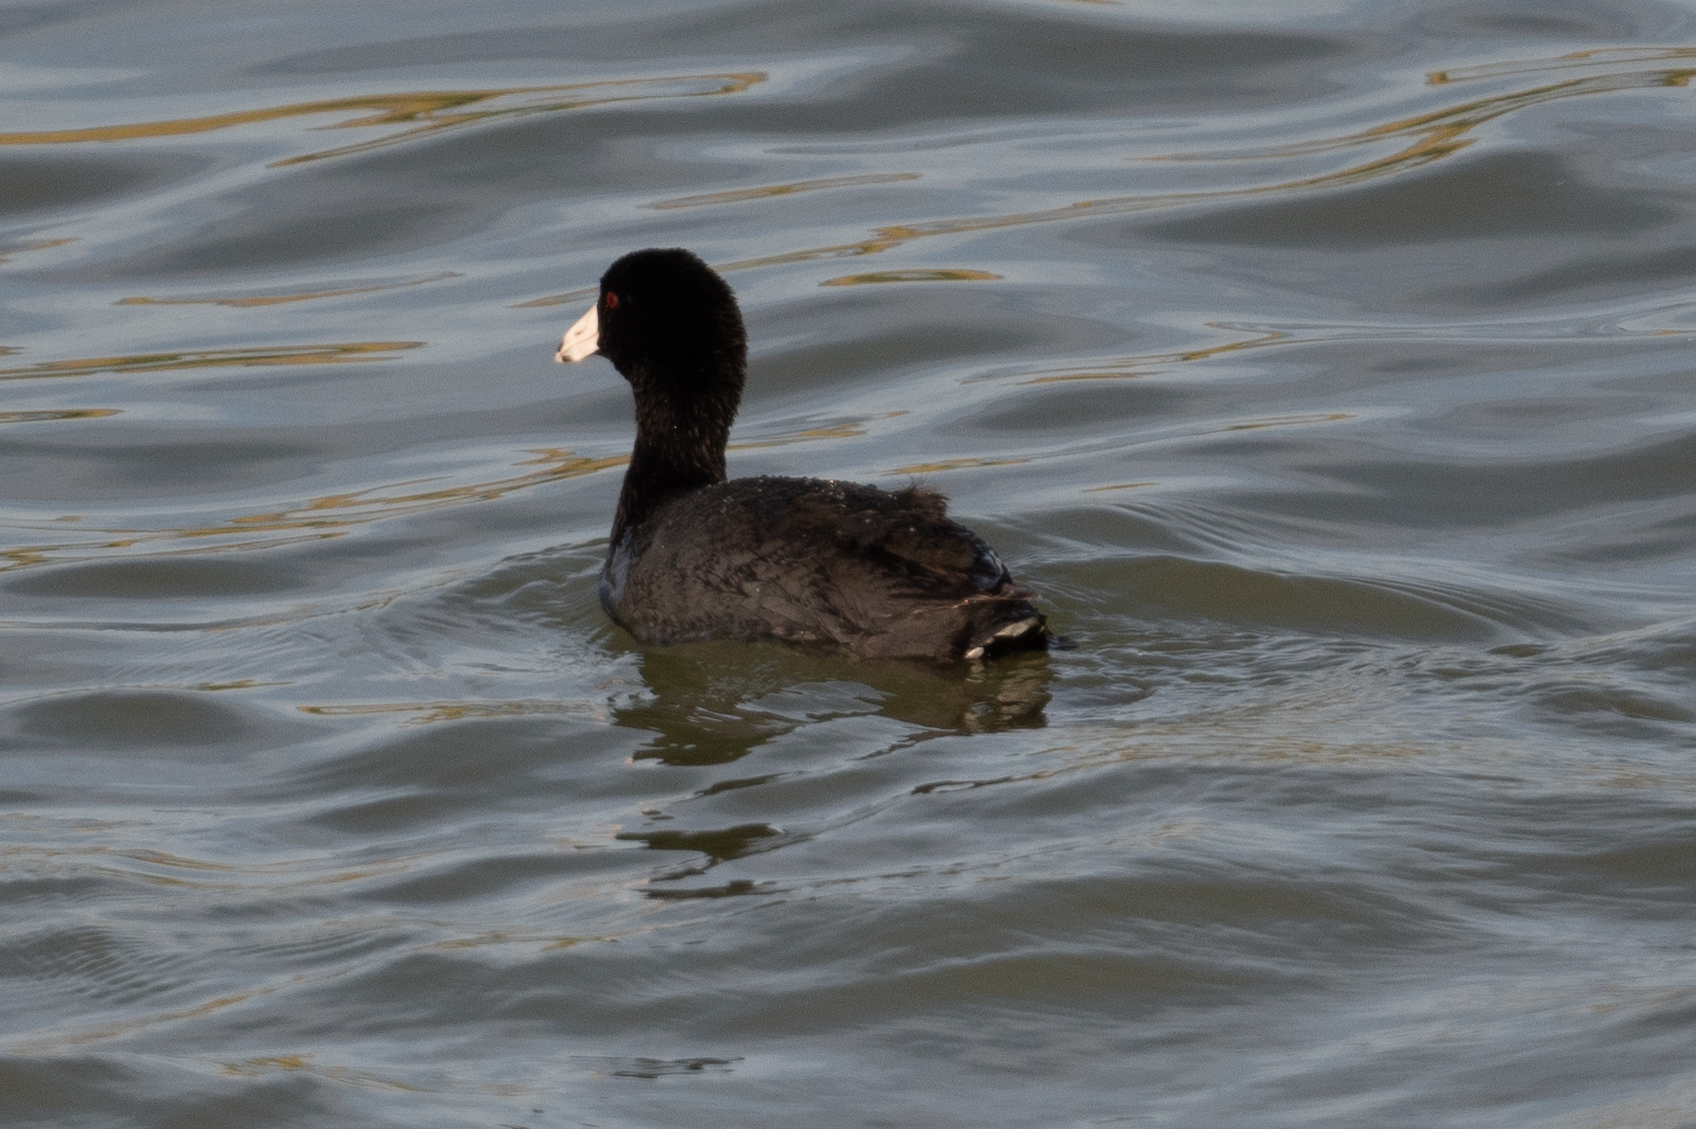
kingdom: Animalia
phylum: Chordata
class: Aves
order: Gruiformes
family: Rallidae
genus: Fulica
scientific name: Fulica americana
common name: American coot
